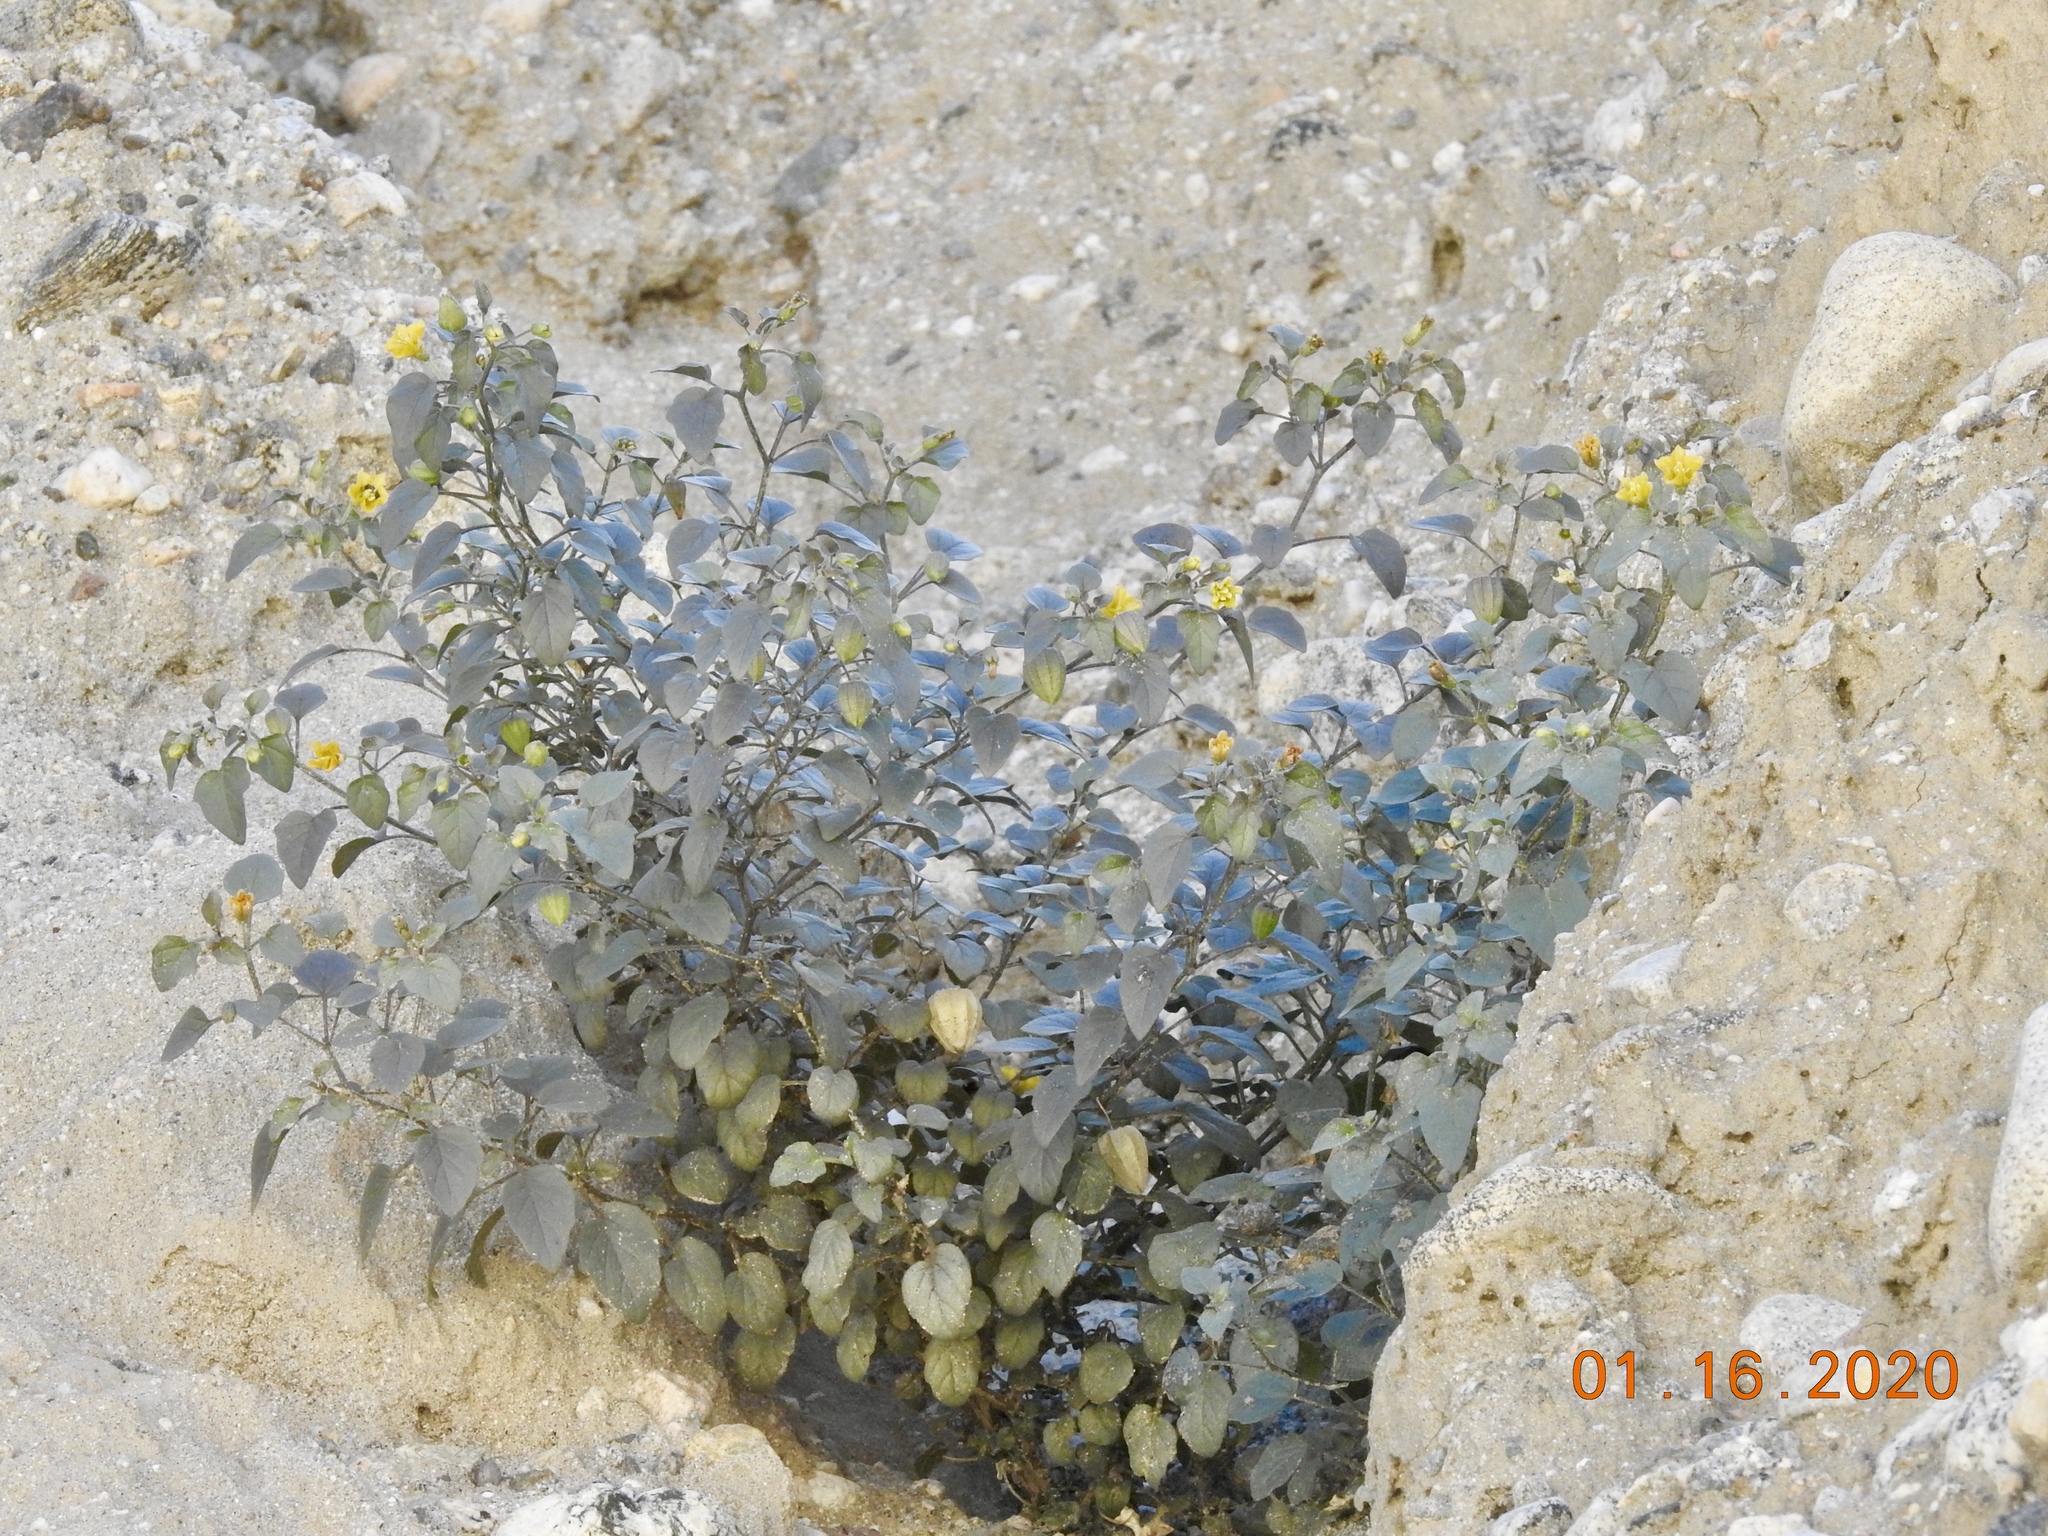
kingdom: Plantae
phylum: Tracheophyta
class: Magnoliopsida
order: Solanales
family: Solanaceae
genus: Physalis
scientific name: Physalis crassifolia
